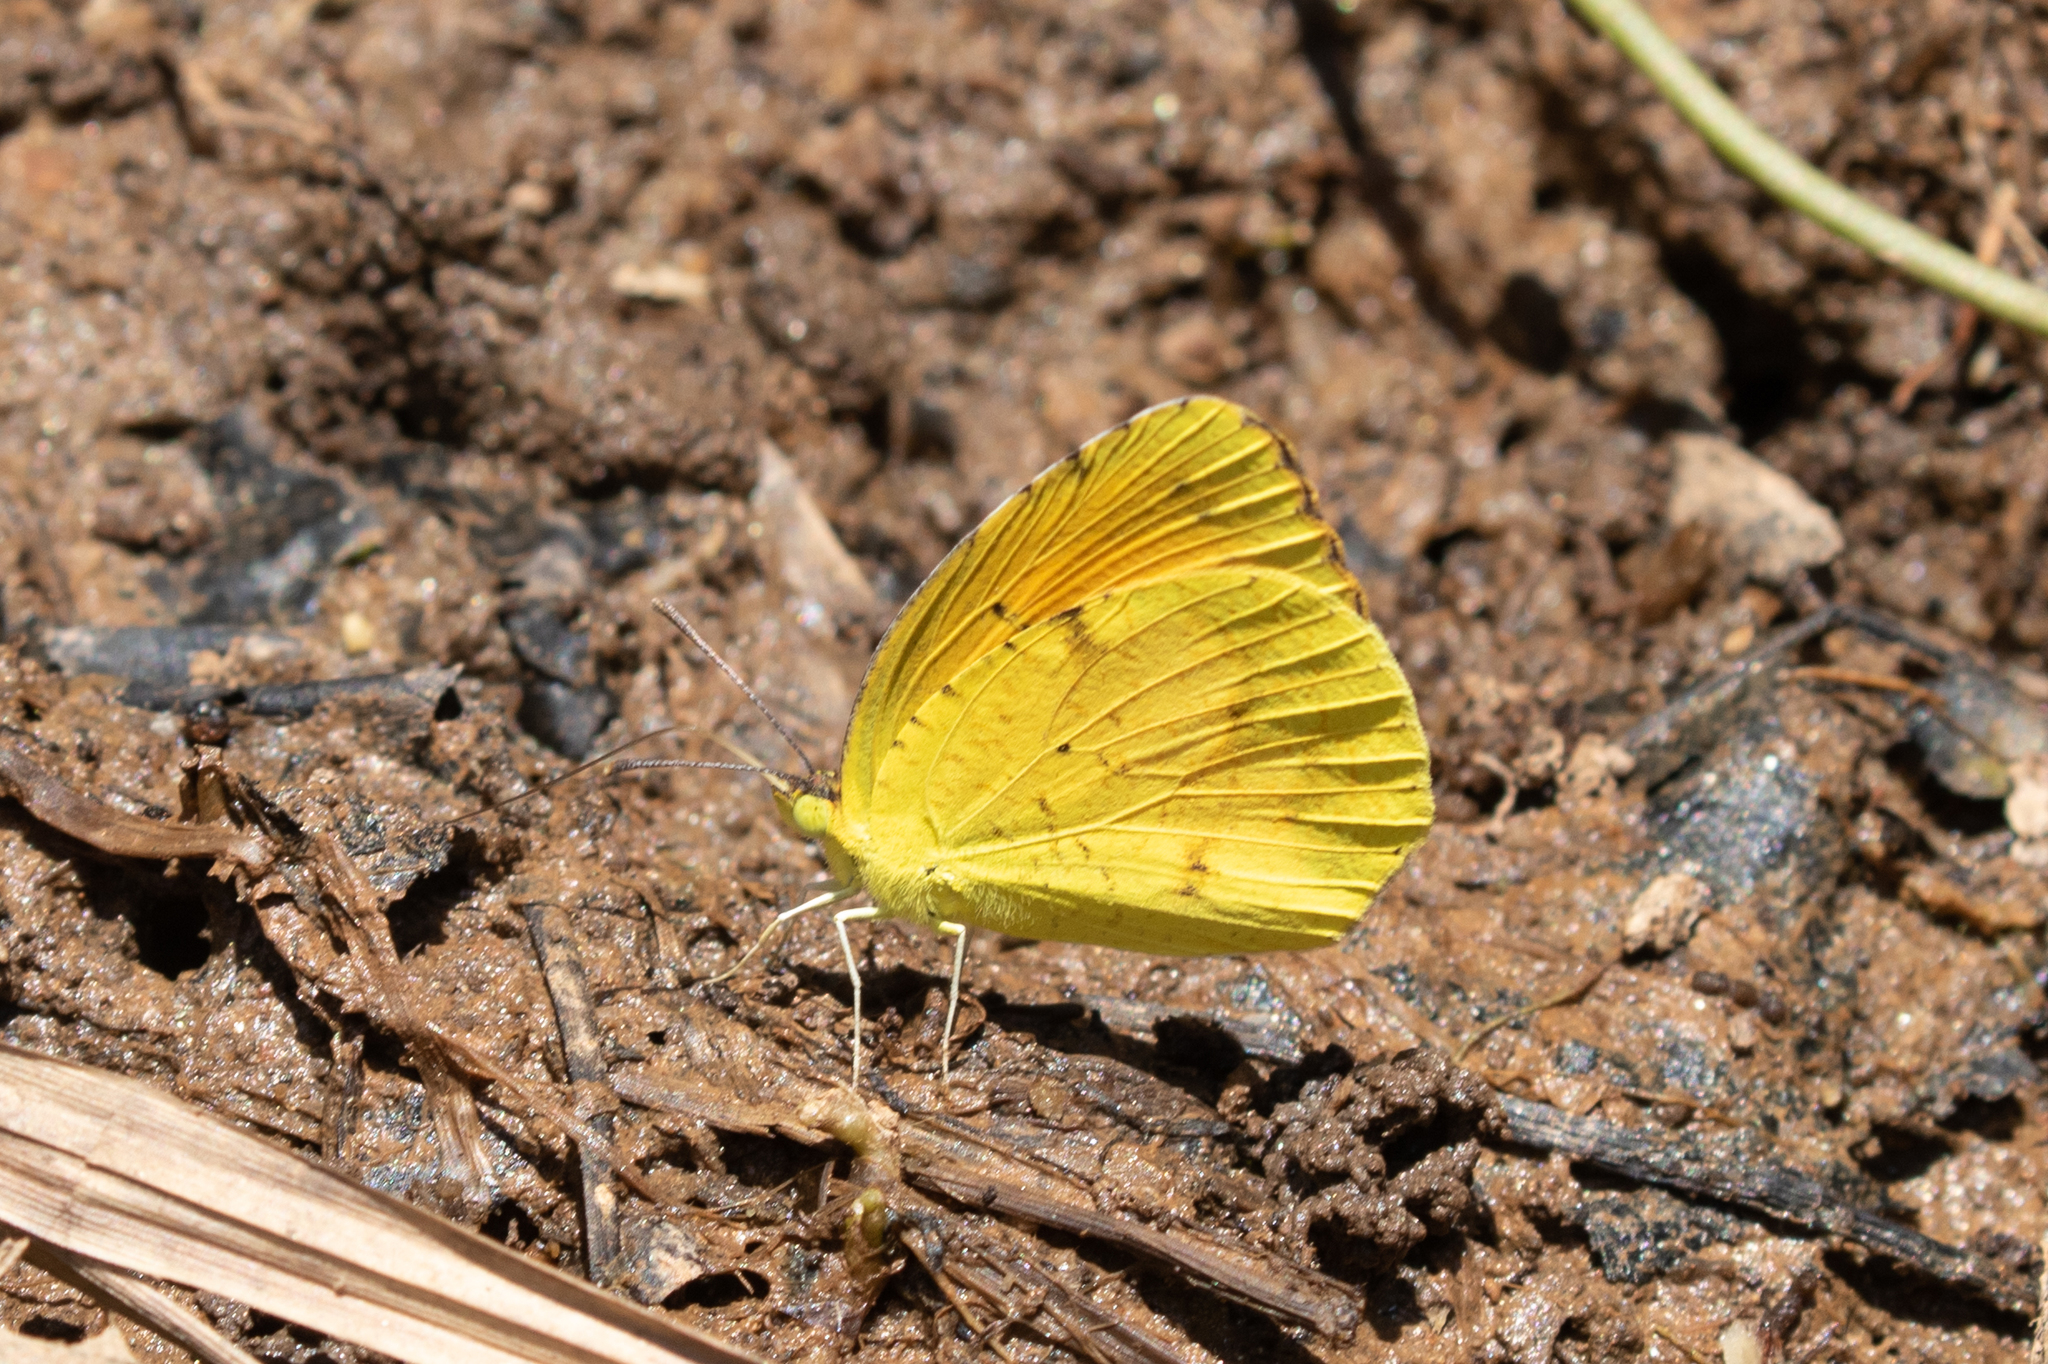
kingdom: Animalia
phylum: Arthropoda
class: Insecta
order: Lepidoptera
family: Pieridae
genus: Abaeis
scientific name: Abaeis nicippe
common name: Sleepy orange
